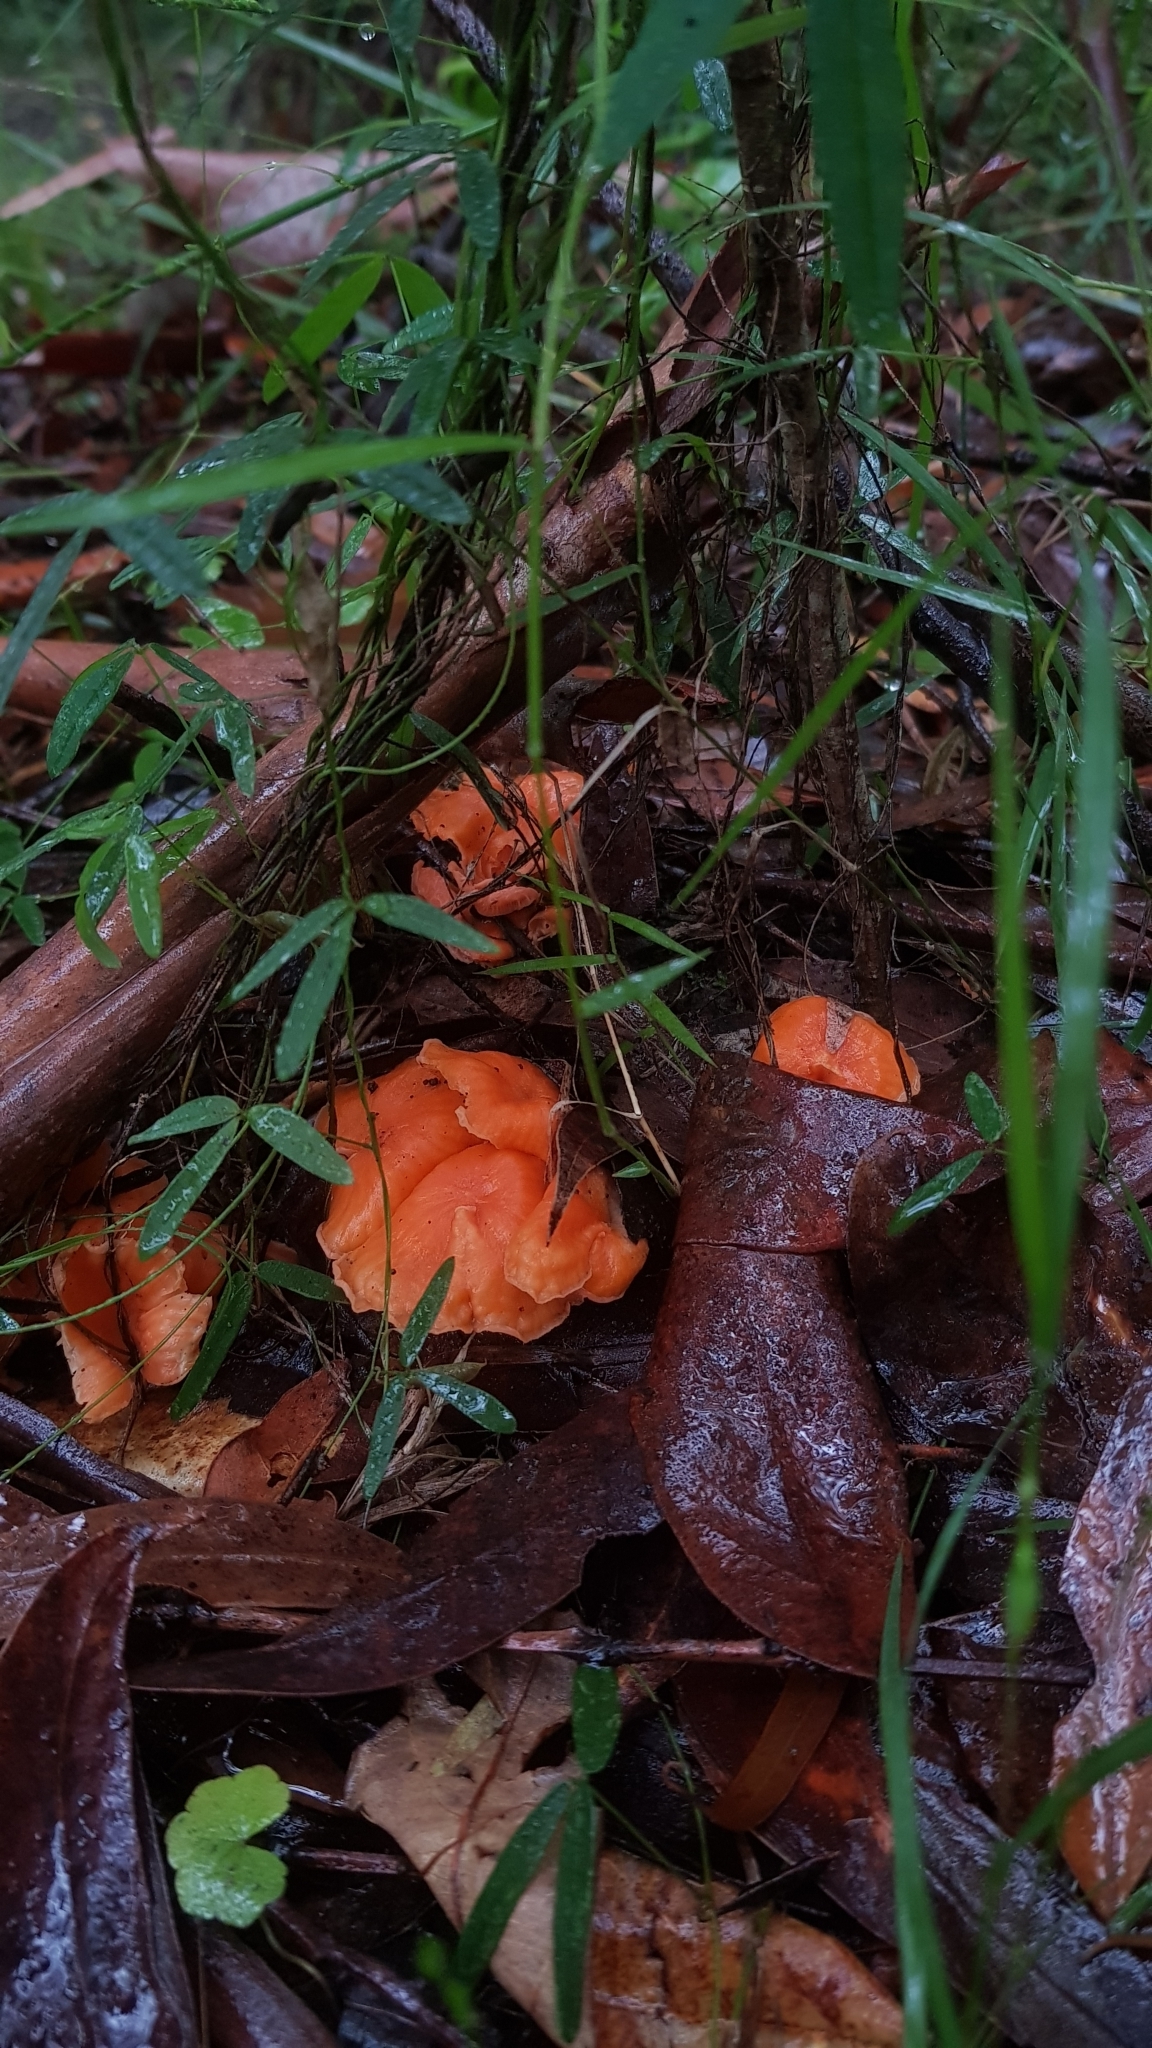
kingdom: Fungi
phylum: Basidiomycota
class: Agaricomycetes
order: Cantharellales
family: Hydnaceae
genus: Cantharellus
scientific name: Cantharellus
